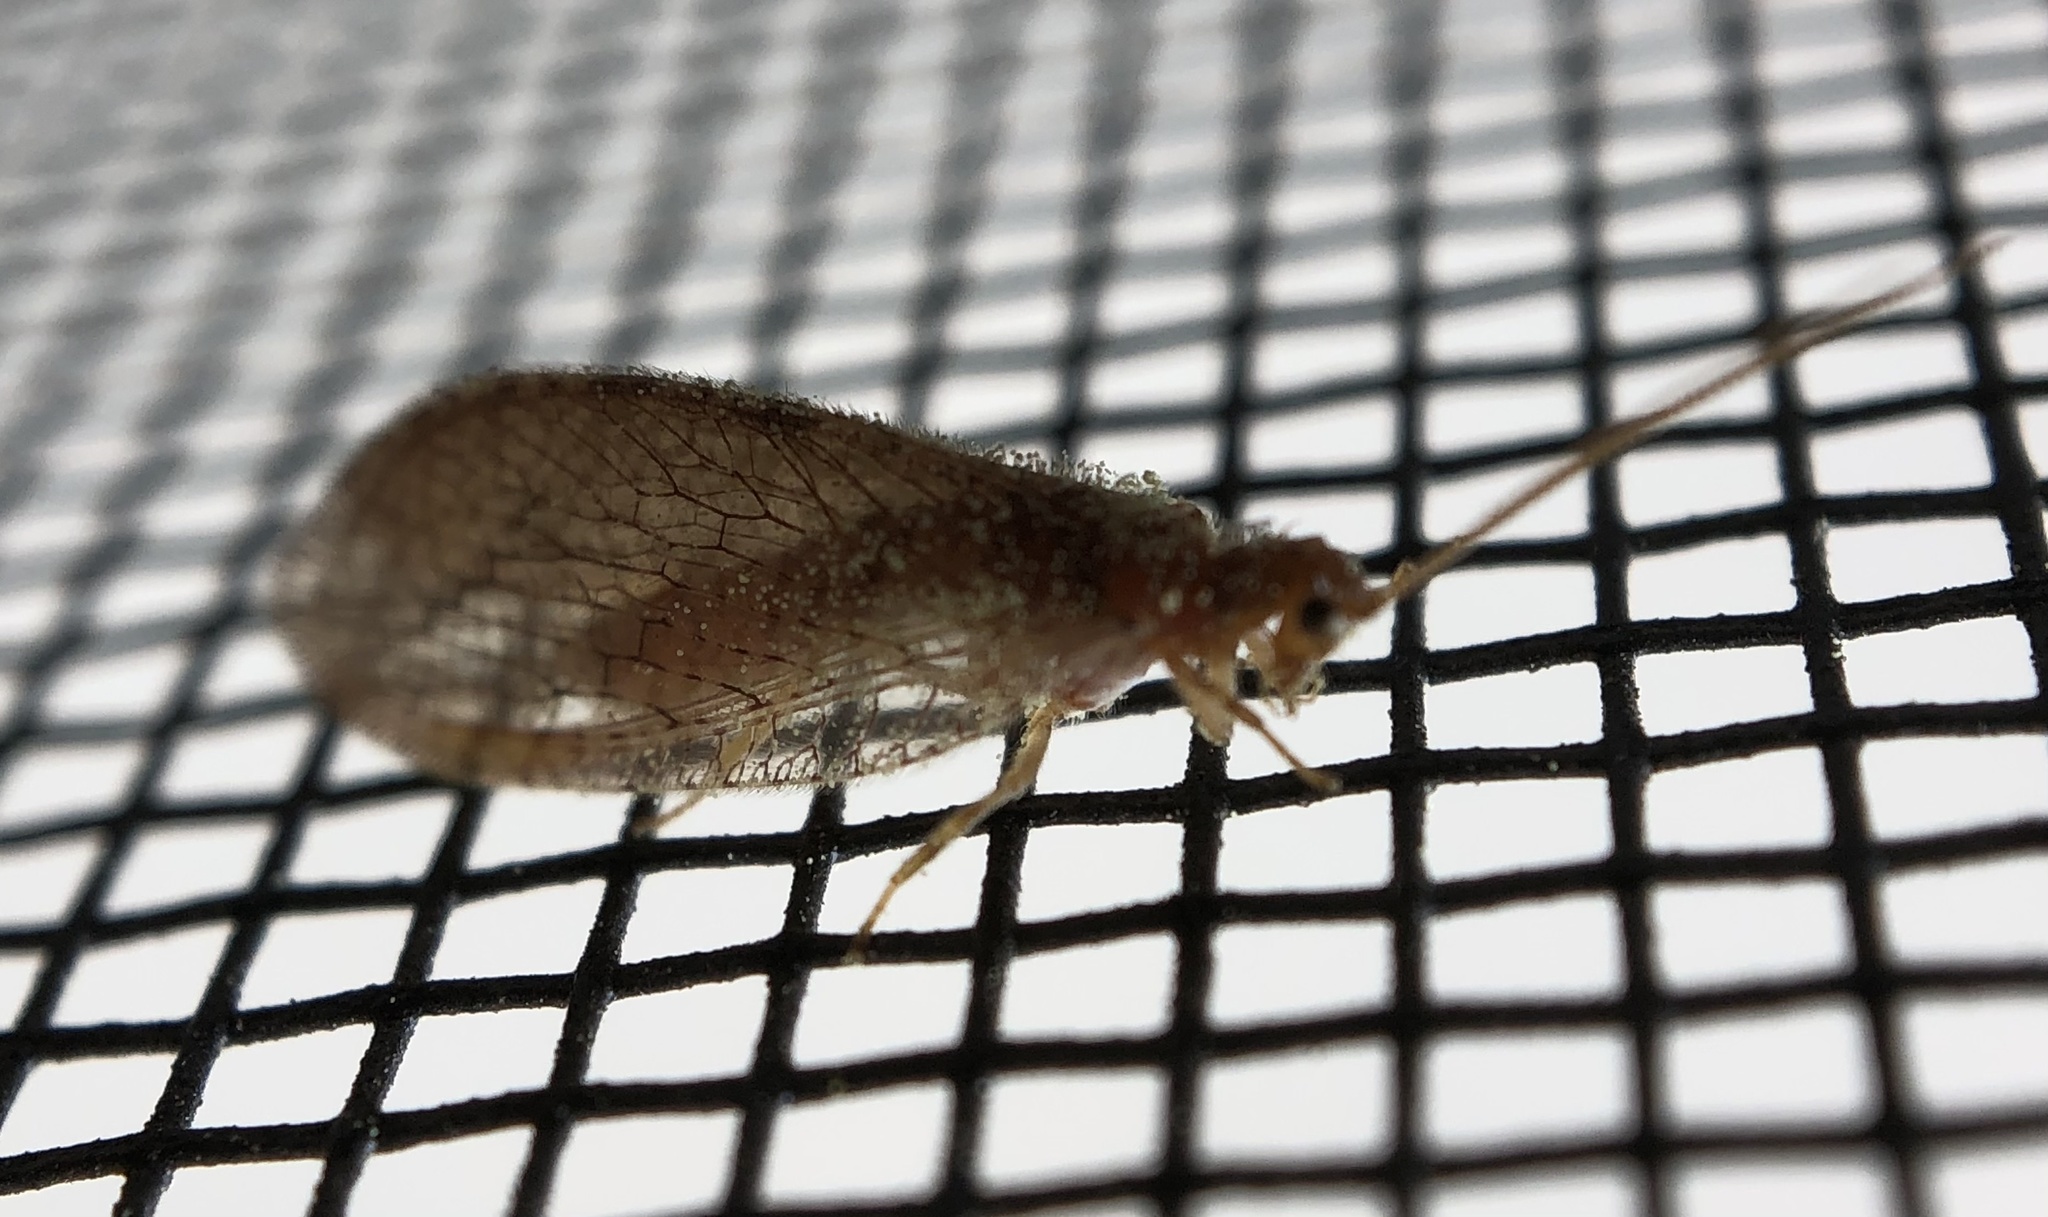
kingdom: Animalia
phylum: Arthropoda
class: Insecta
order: Neuroptera
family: Hemerobiidae
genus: Micromus
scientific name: Micromus posticus
